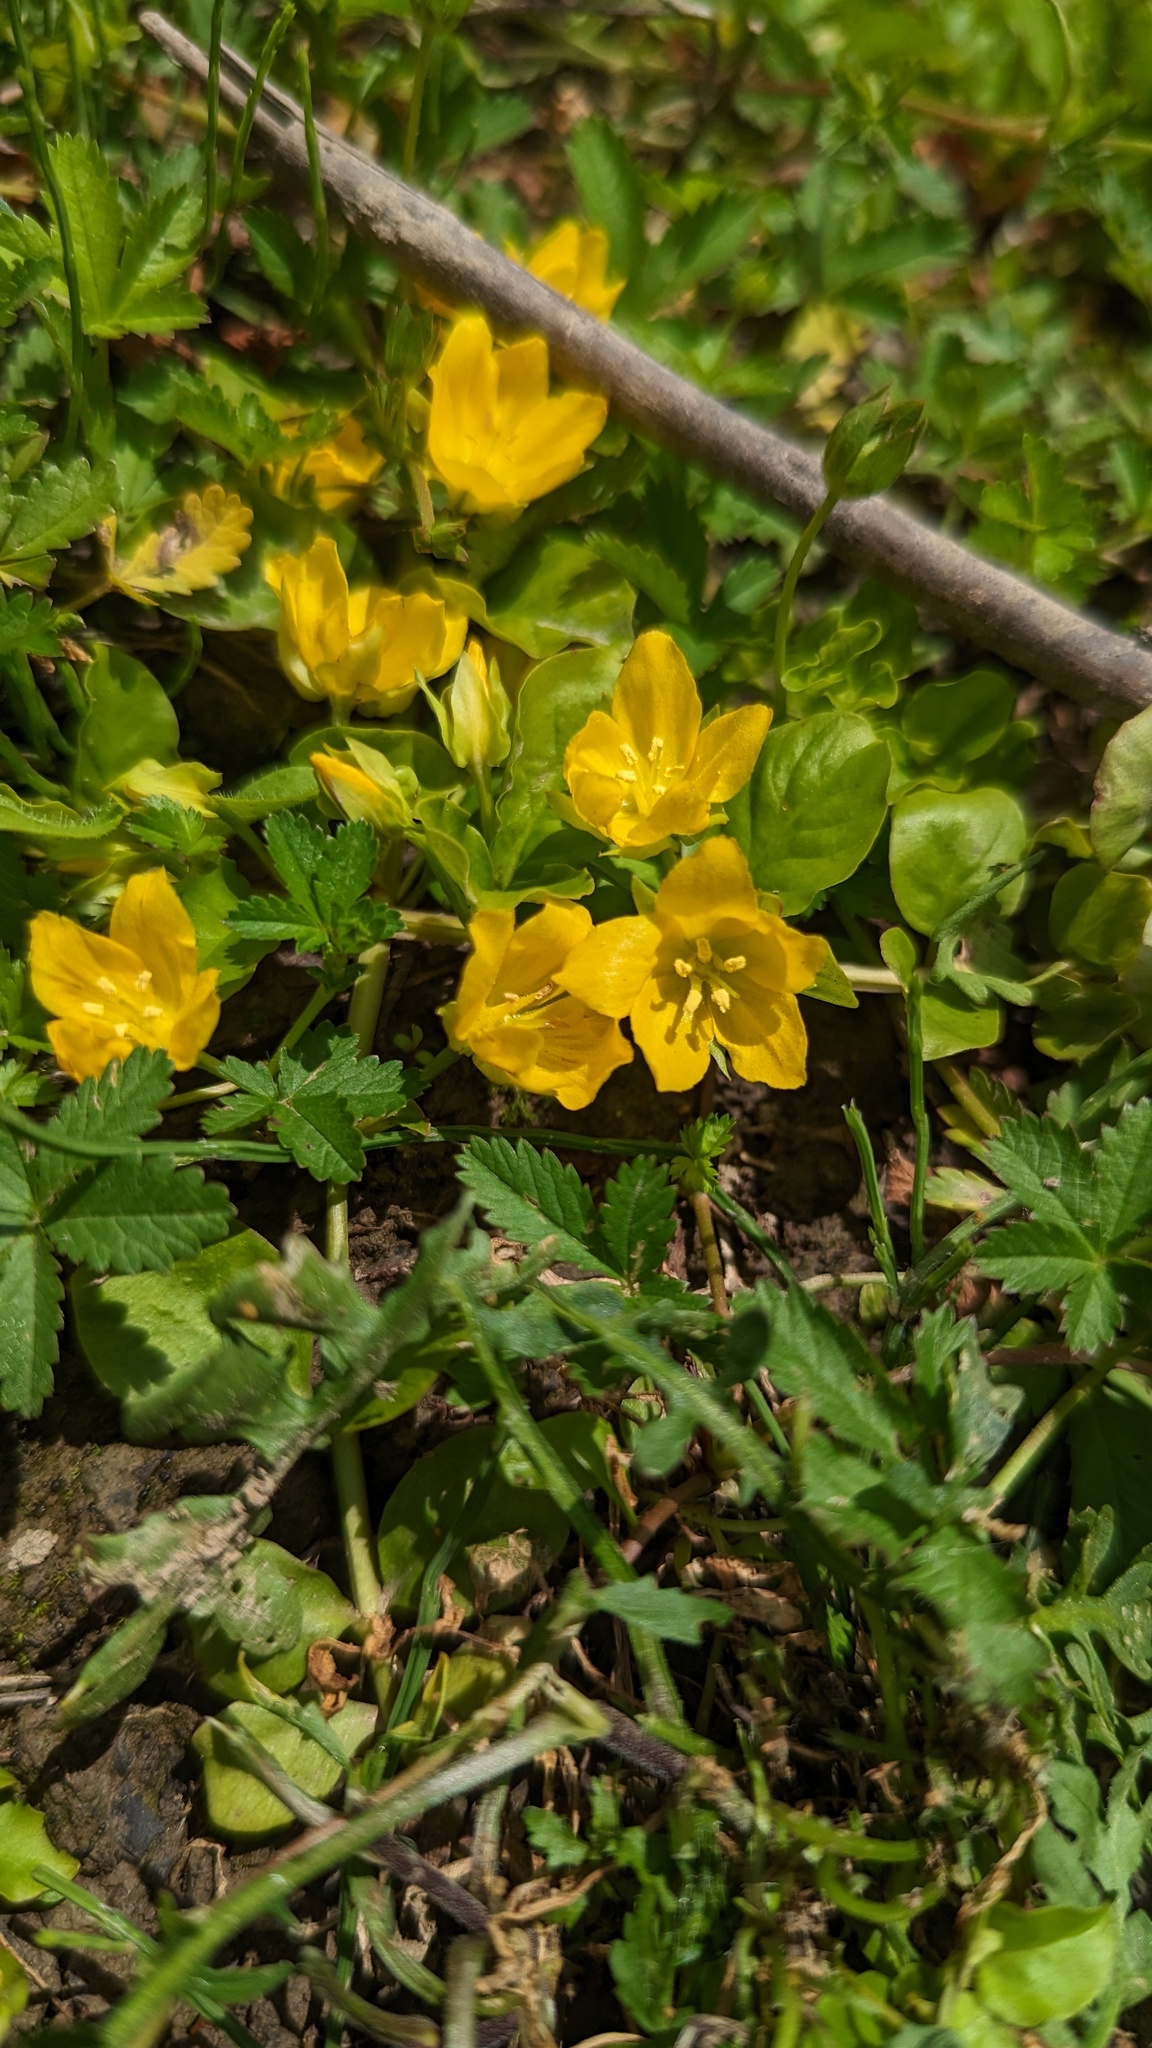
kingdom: Plantae
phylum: Tracheophyta
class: Magnoliopsida
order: Ericales
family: Primulaceae
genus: Lysimachia
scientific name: Lysimachia nummularia
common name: Moneywort
